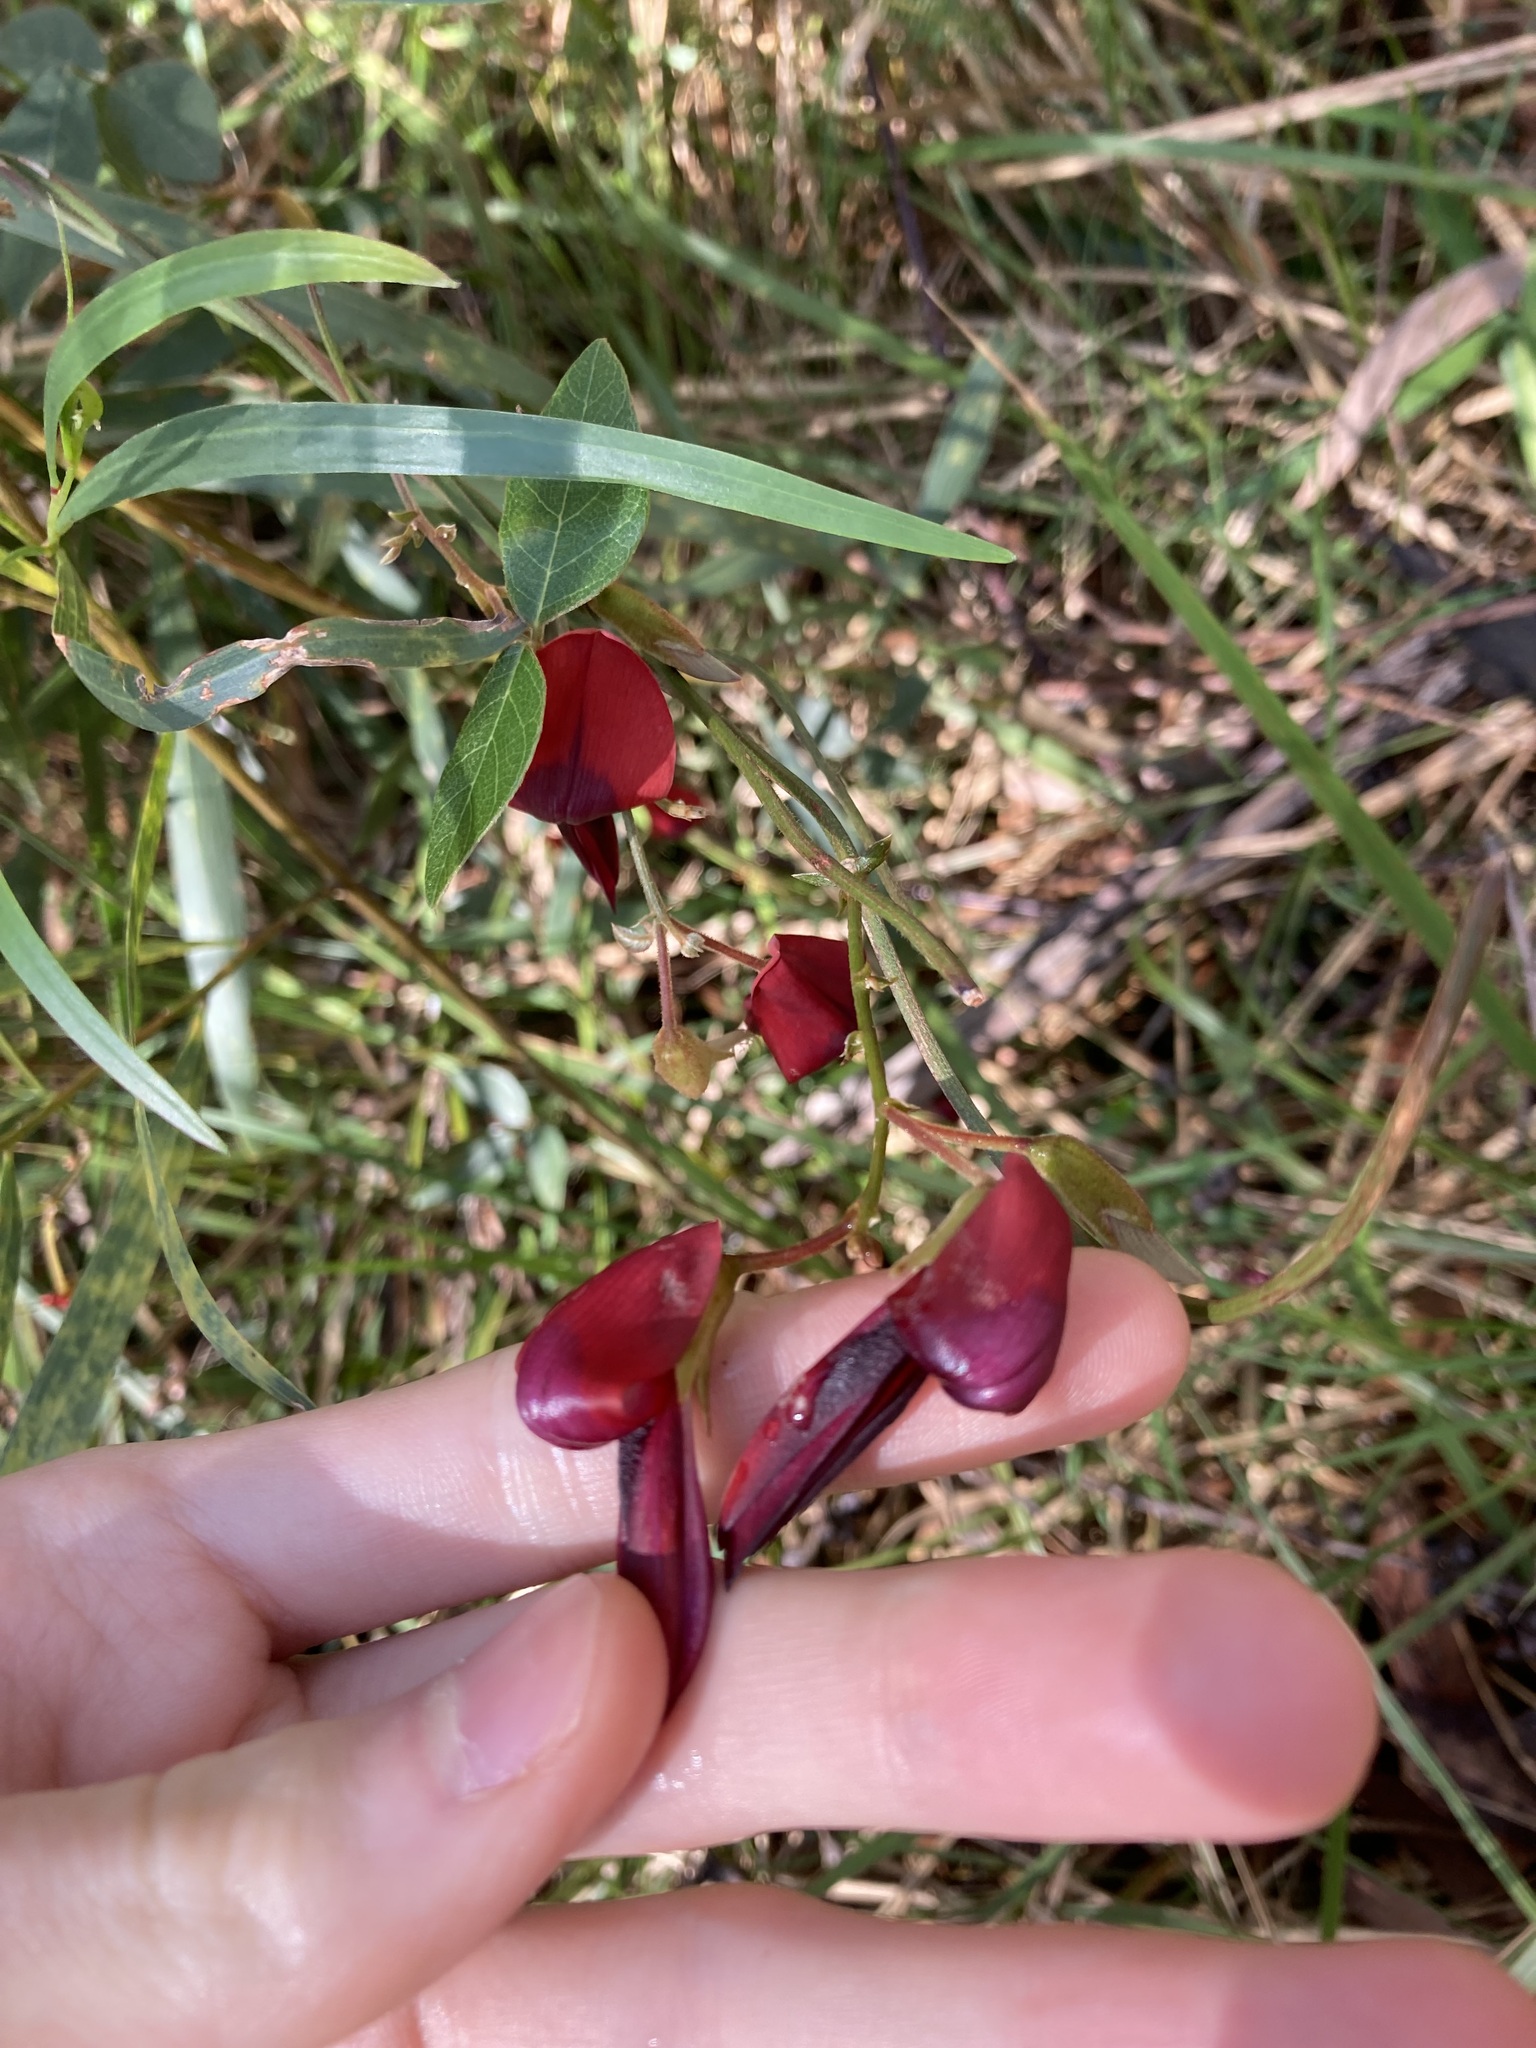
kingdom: Plantae
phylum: Tracheophyta
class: Magnoliopsida
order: Fabales
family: Fabaceae
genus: Kennedia
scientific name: Kennedia rubicunda
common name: Red kennedy-pea
